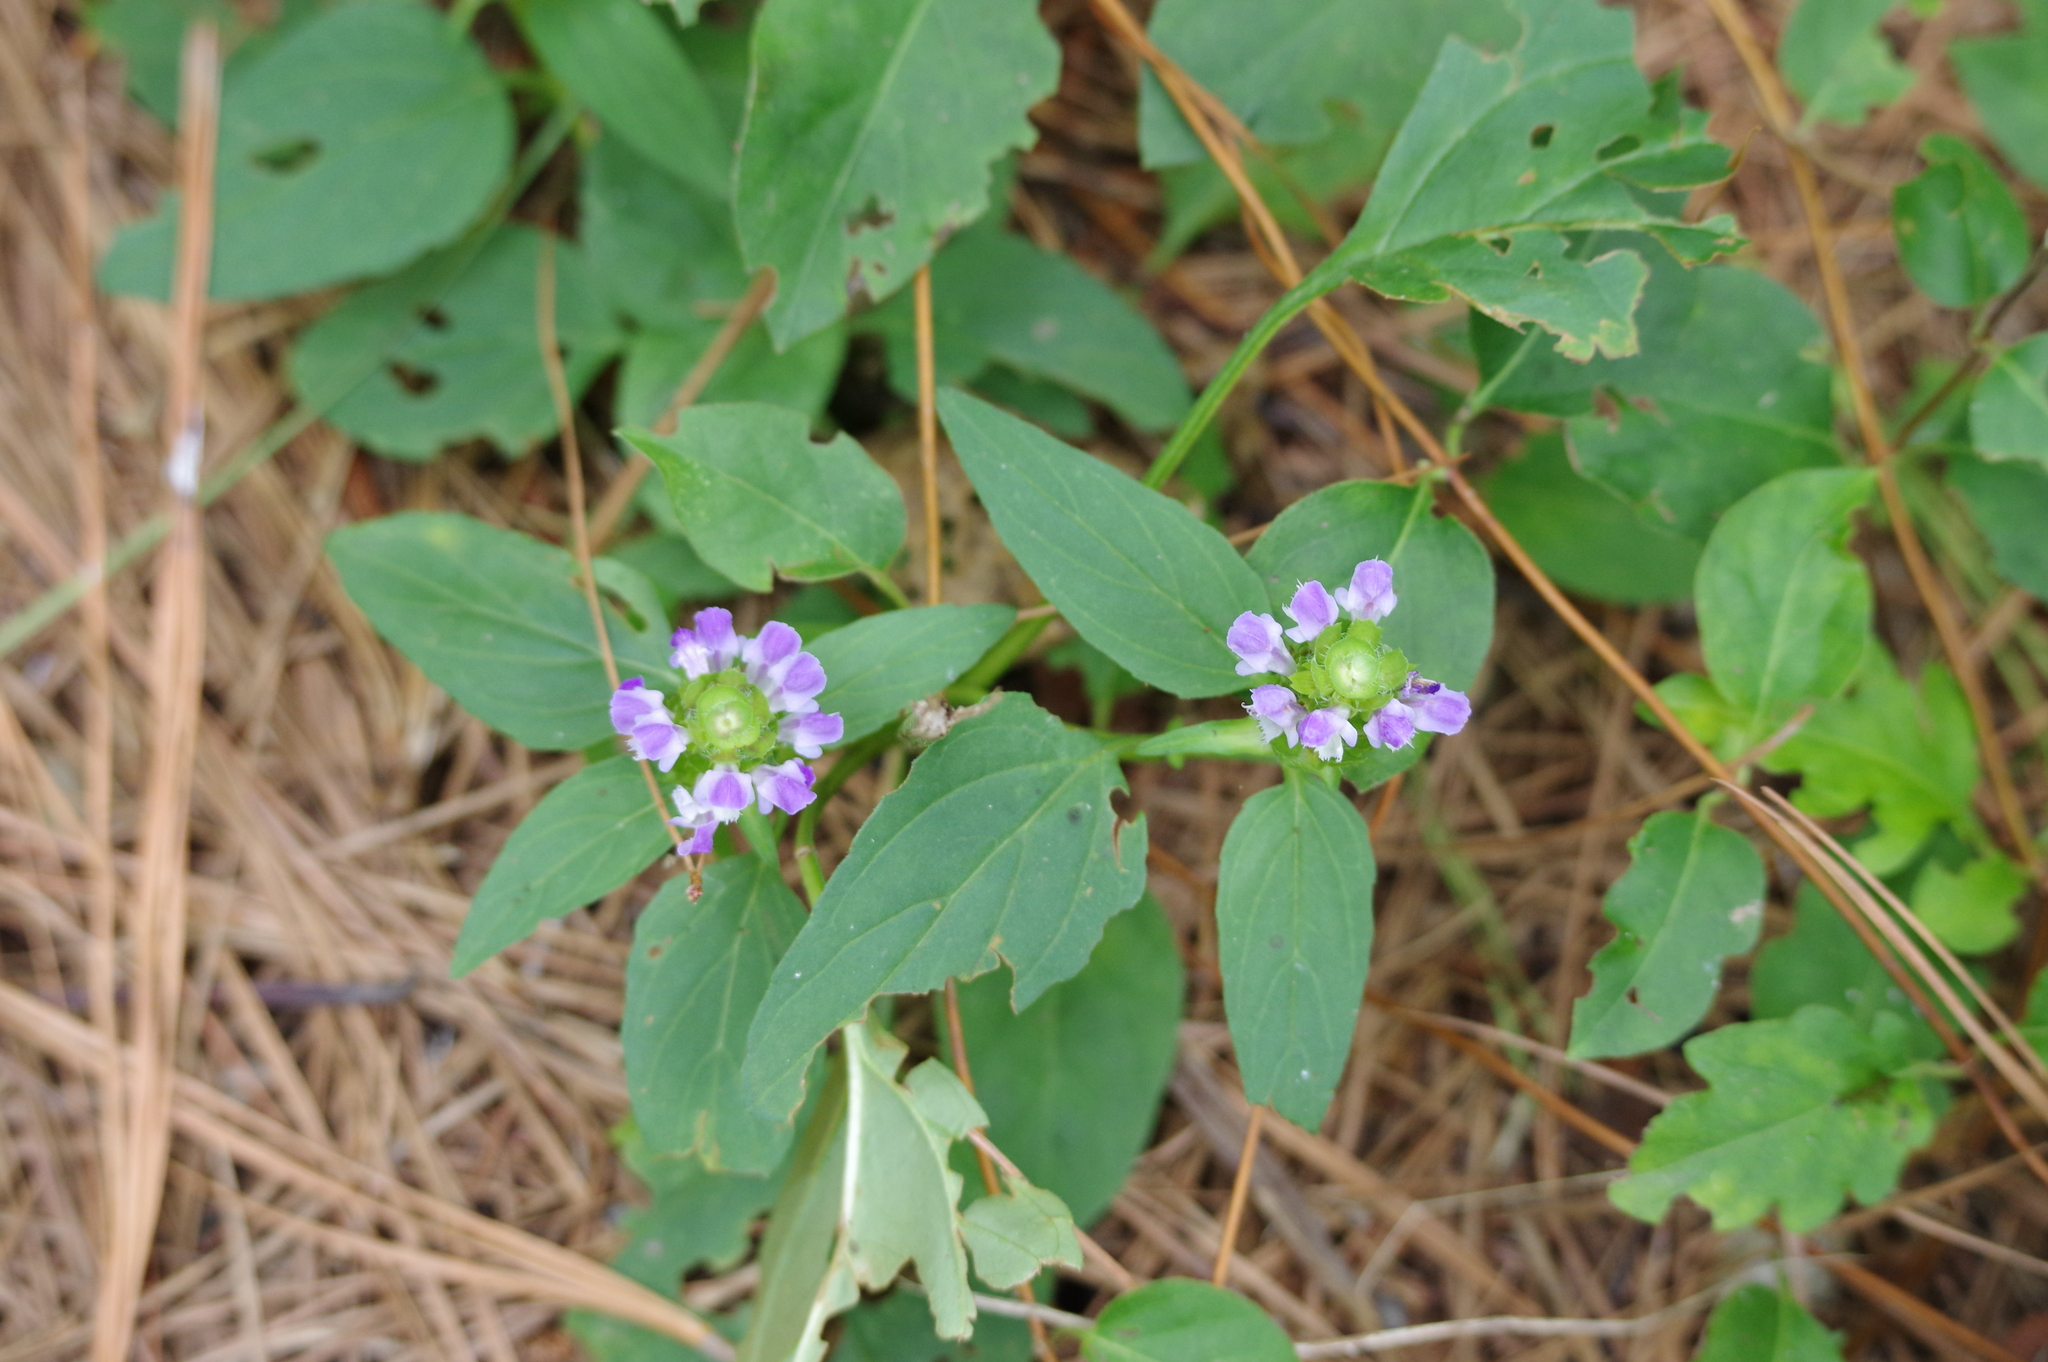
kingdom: Plantae
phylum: Tracheophyta
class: Magnoliopsida
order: Lamiales
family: Lamiaceae
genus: Prunella
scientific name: Prunella vulgaris
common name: Heal-all
